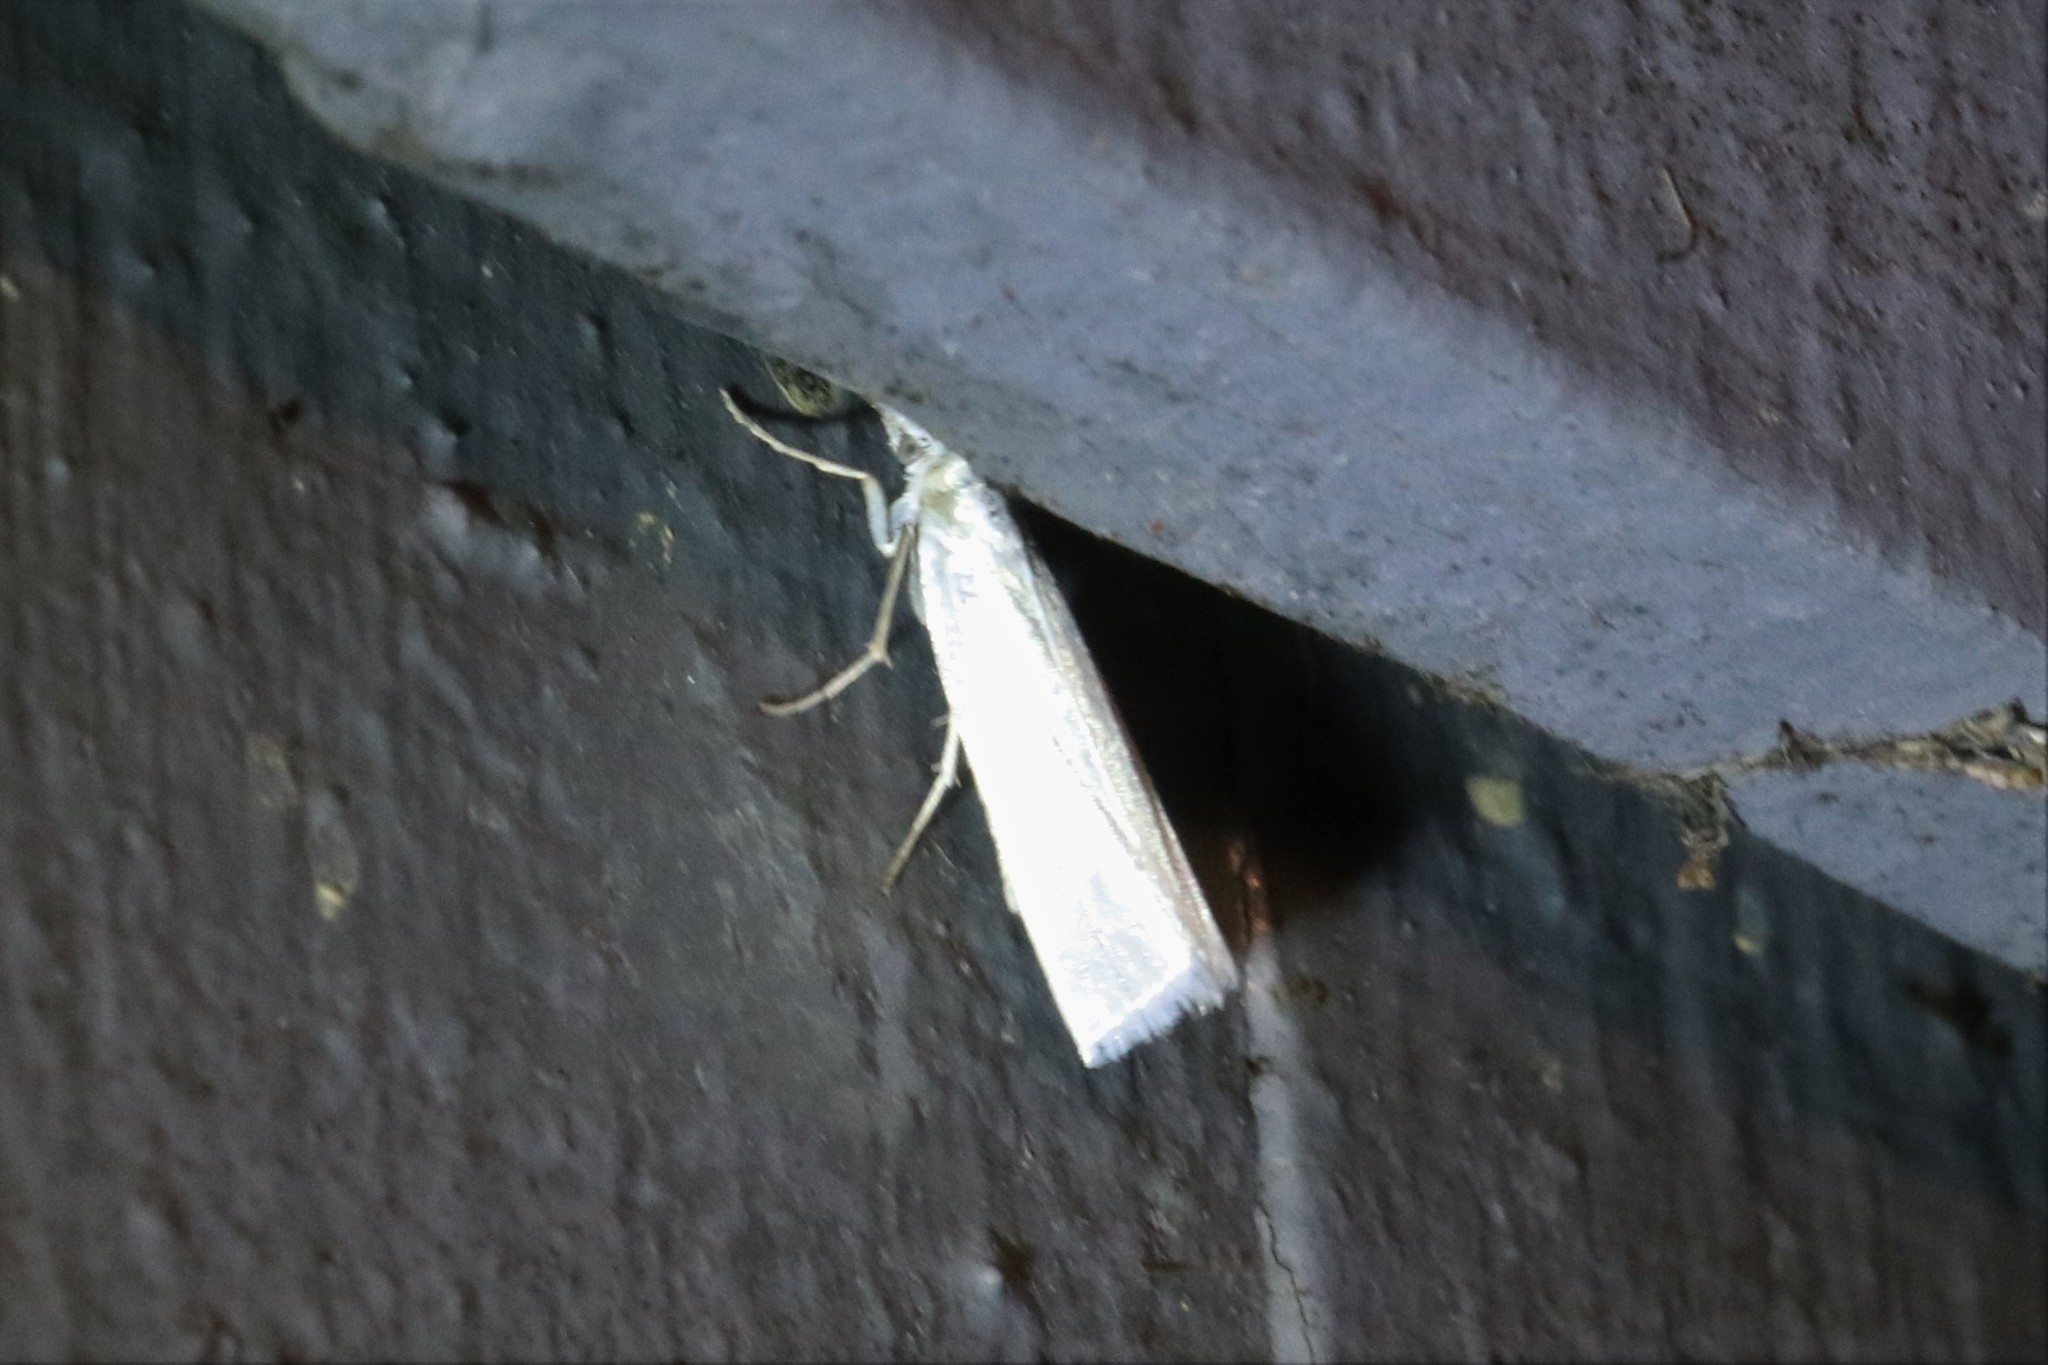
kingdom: Animalia
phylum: Arthropoda
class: Insecta
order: Lepidoptera
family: Crambidae
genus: Crambus
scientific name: Crambus perlellus
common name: Yellow satin veneer
